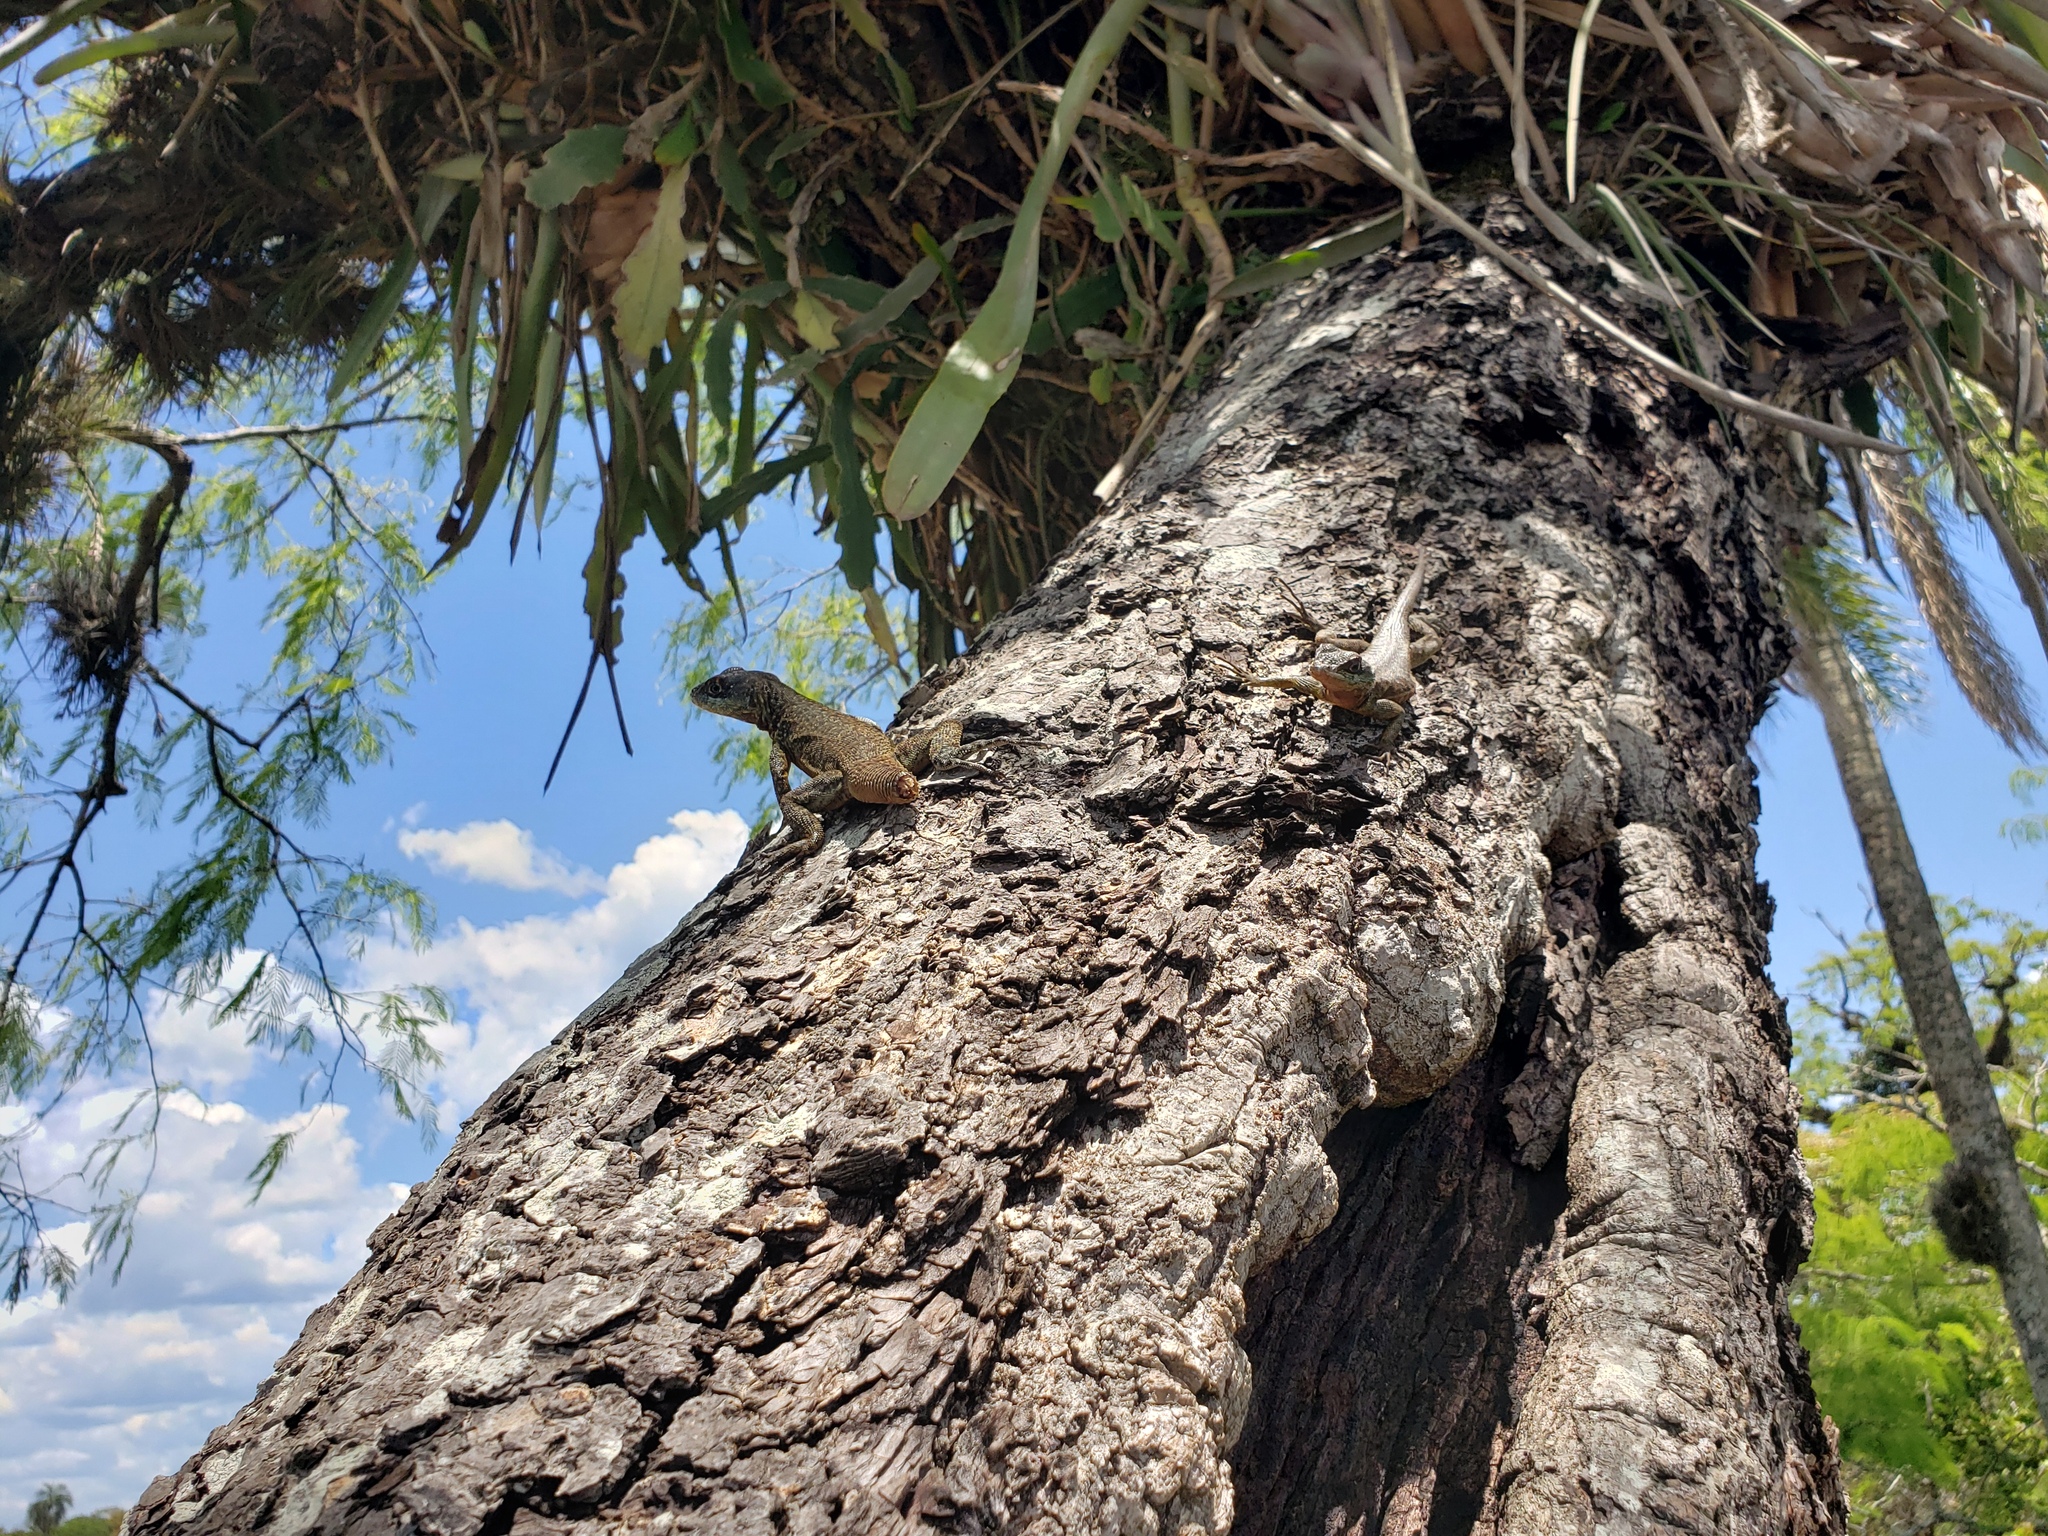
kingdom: Animalia
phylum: Chordata
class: Squamata
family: Tropiduridae
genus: Tropidurus
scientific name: Tropidurus catalanensis
